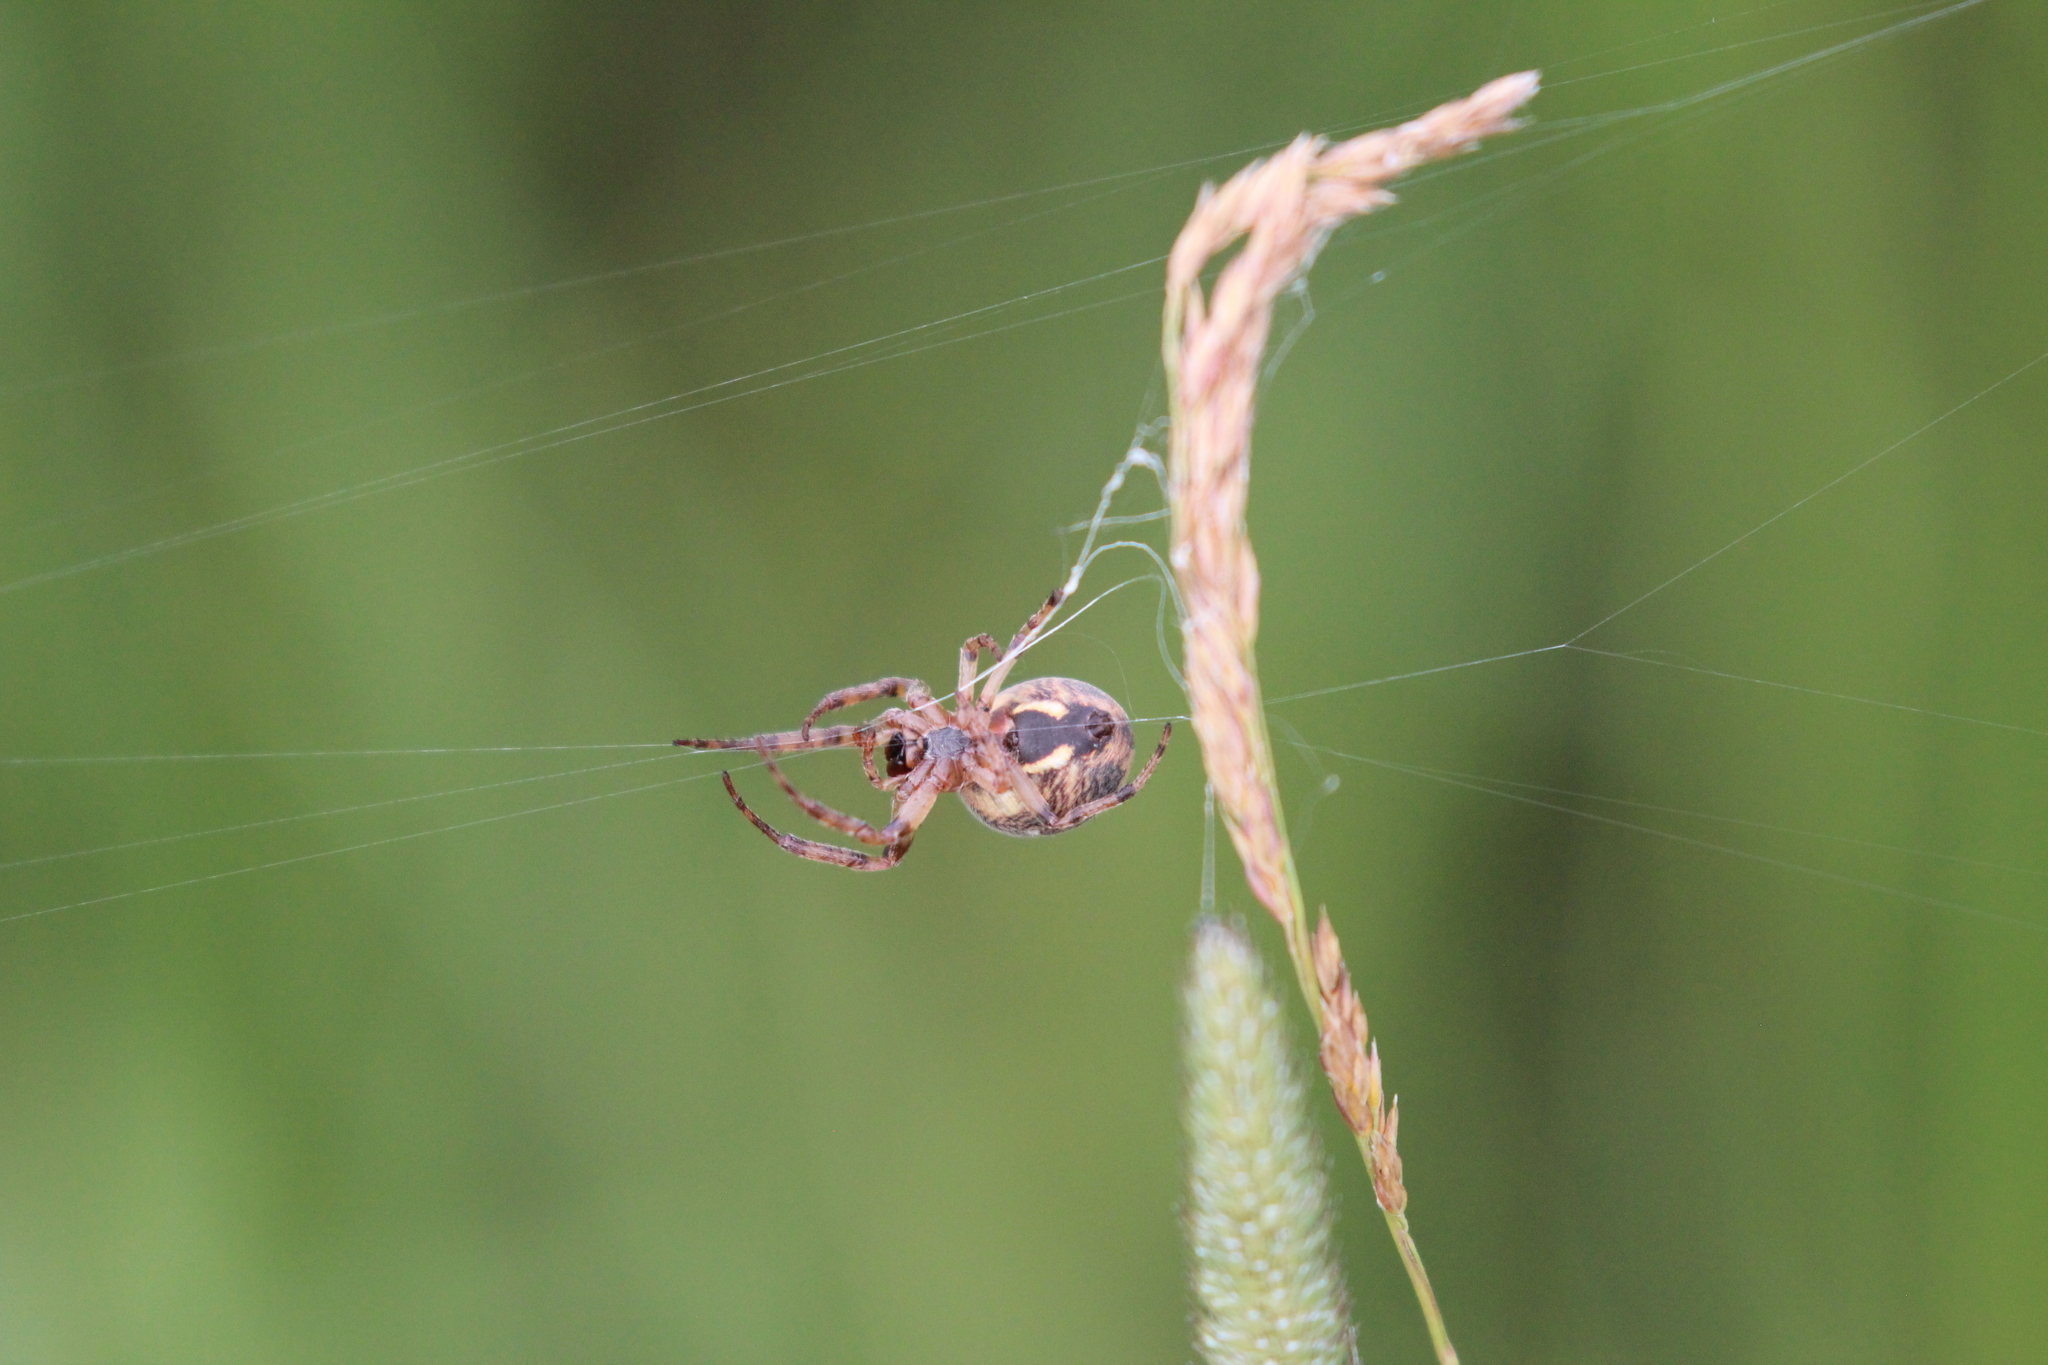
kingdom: Animalia
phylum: Arthropoda
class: Arachnida
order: Araneae
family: Araneidae
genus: Larinioides
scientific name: Larinioides cornutus
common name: Furrow orbweaver
